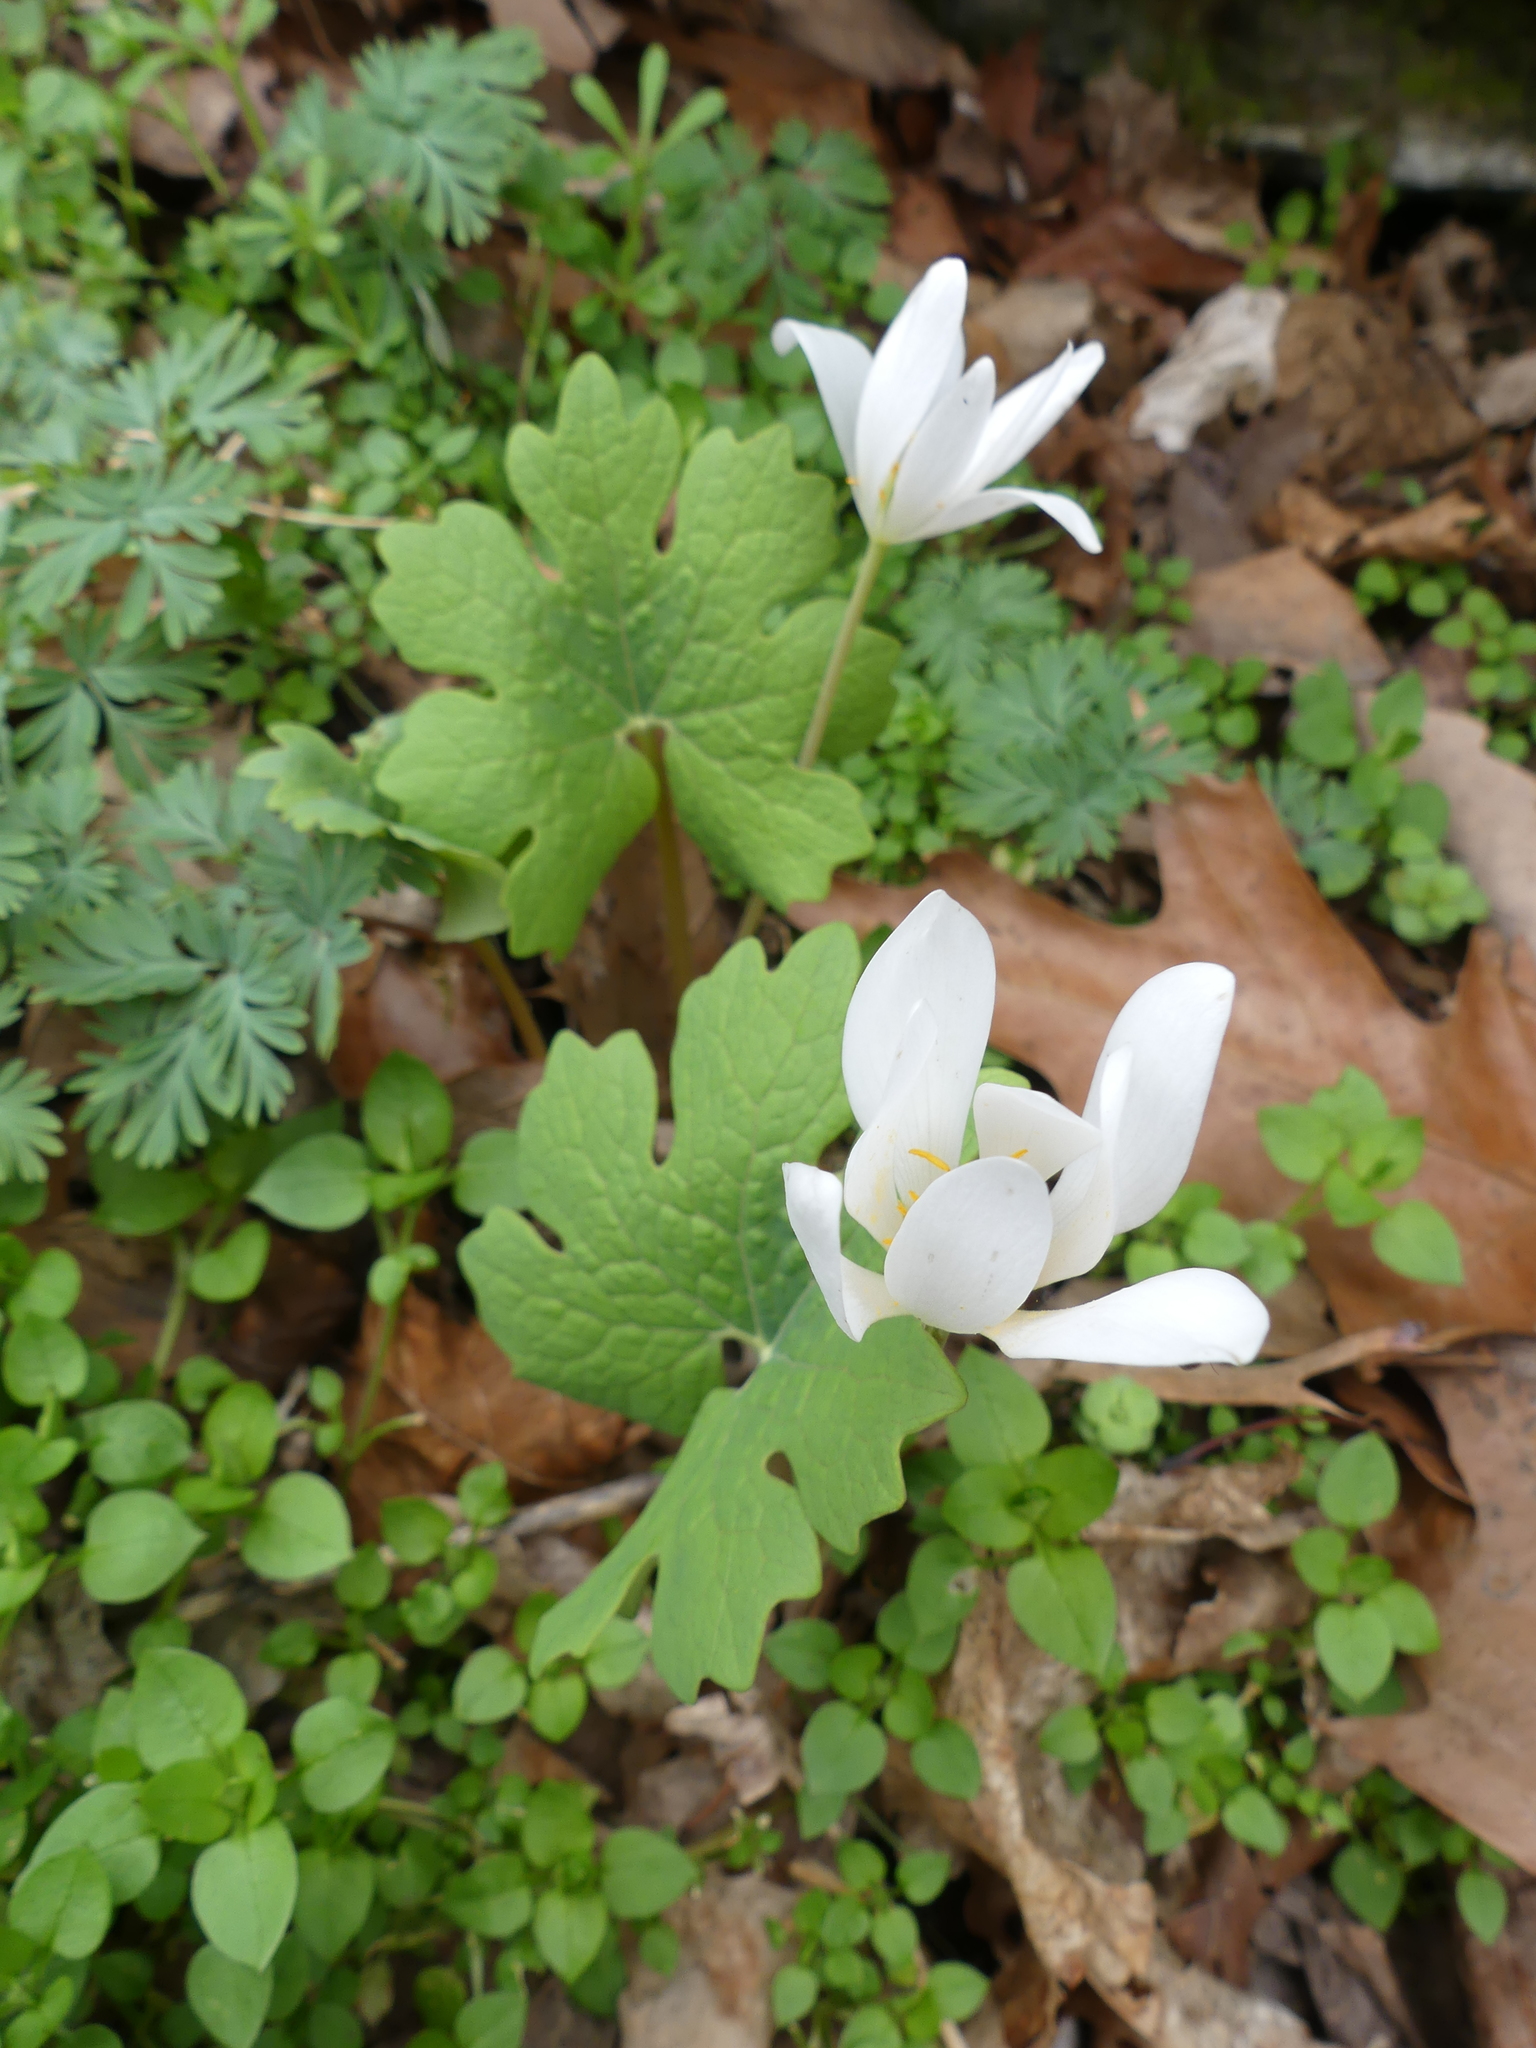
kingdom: Plantae
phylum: Tracheophyta
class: Magnoliopsida
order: Ranunculales
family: Papaveraceae
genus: Sanguinaria
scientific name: Sanguinaria canadensis
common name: Bloodroot
